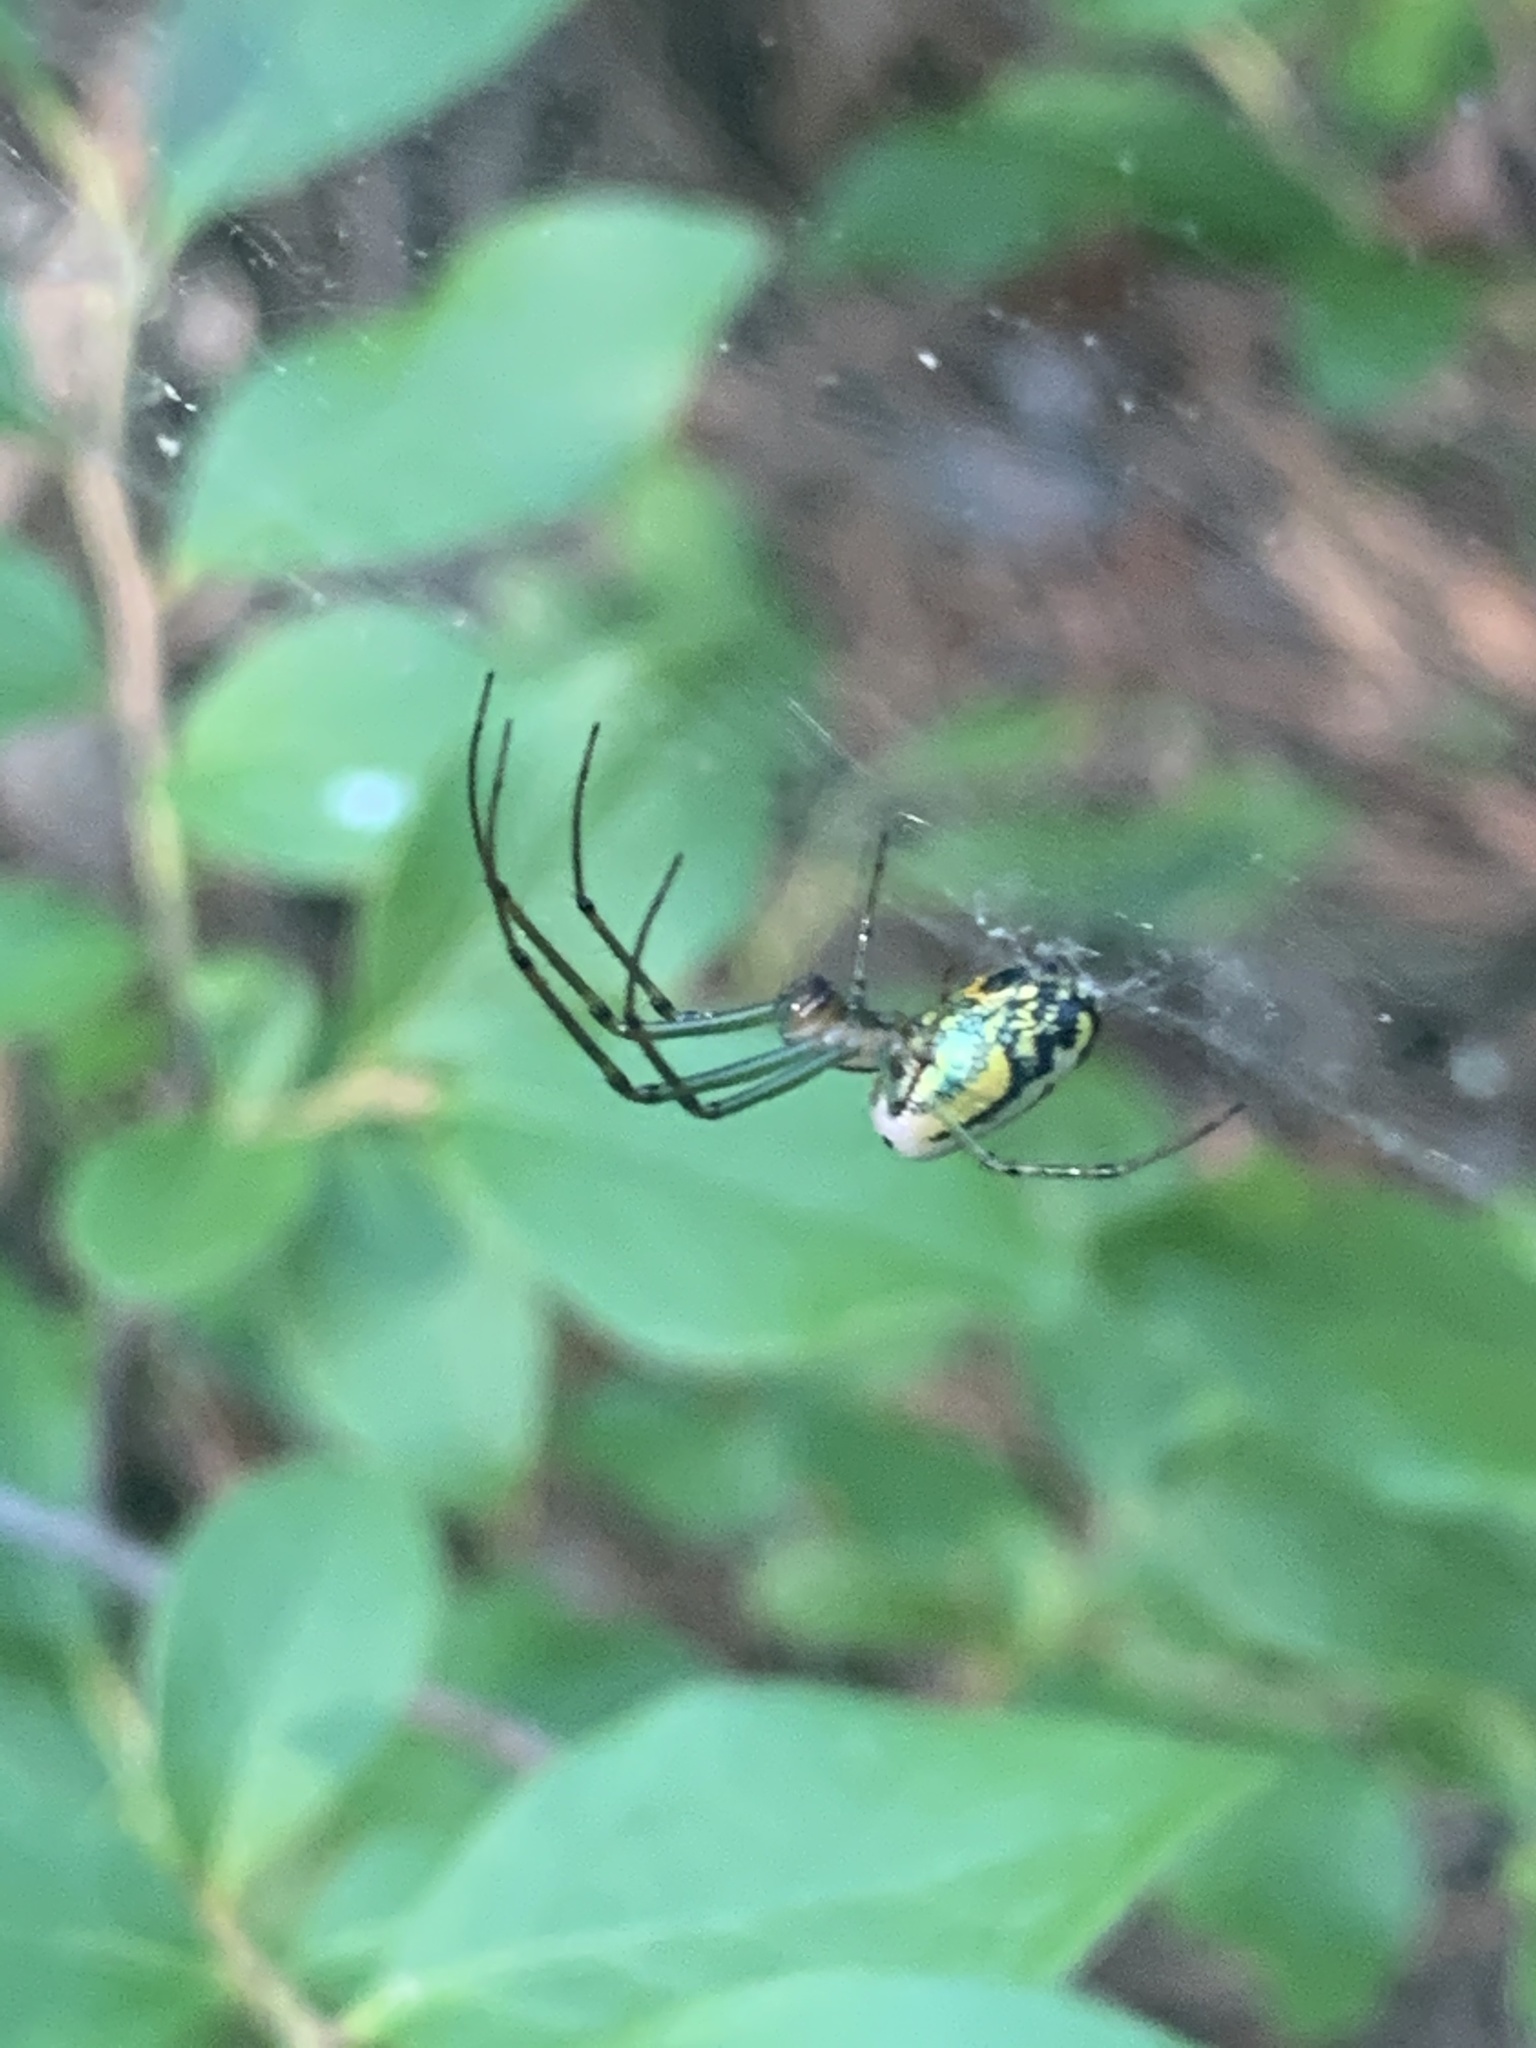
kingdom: Animalia
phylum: Arthropoda
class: Arachnida
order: Araneae
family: Tetragnathidae
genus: Leucauge
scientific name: Leucauge venusta
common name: Longjawed orb weavers
